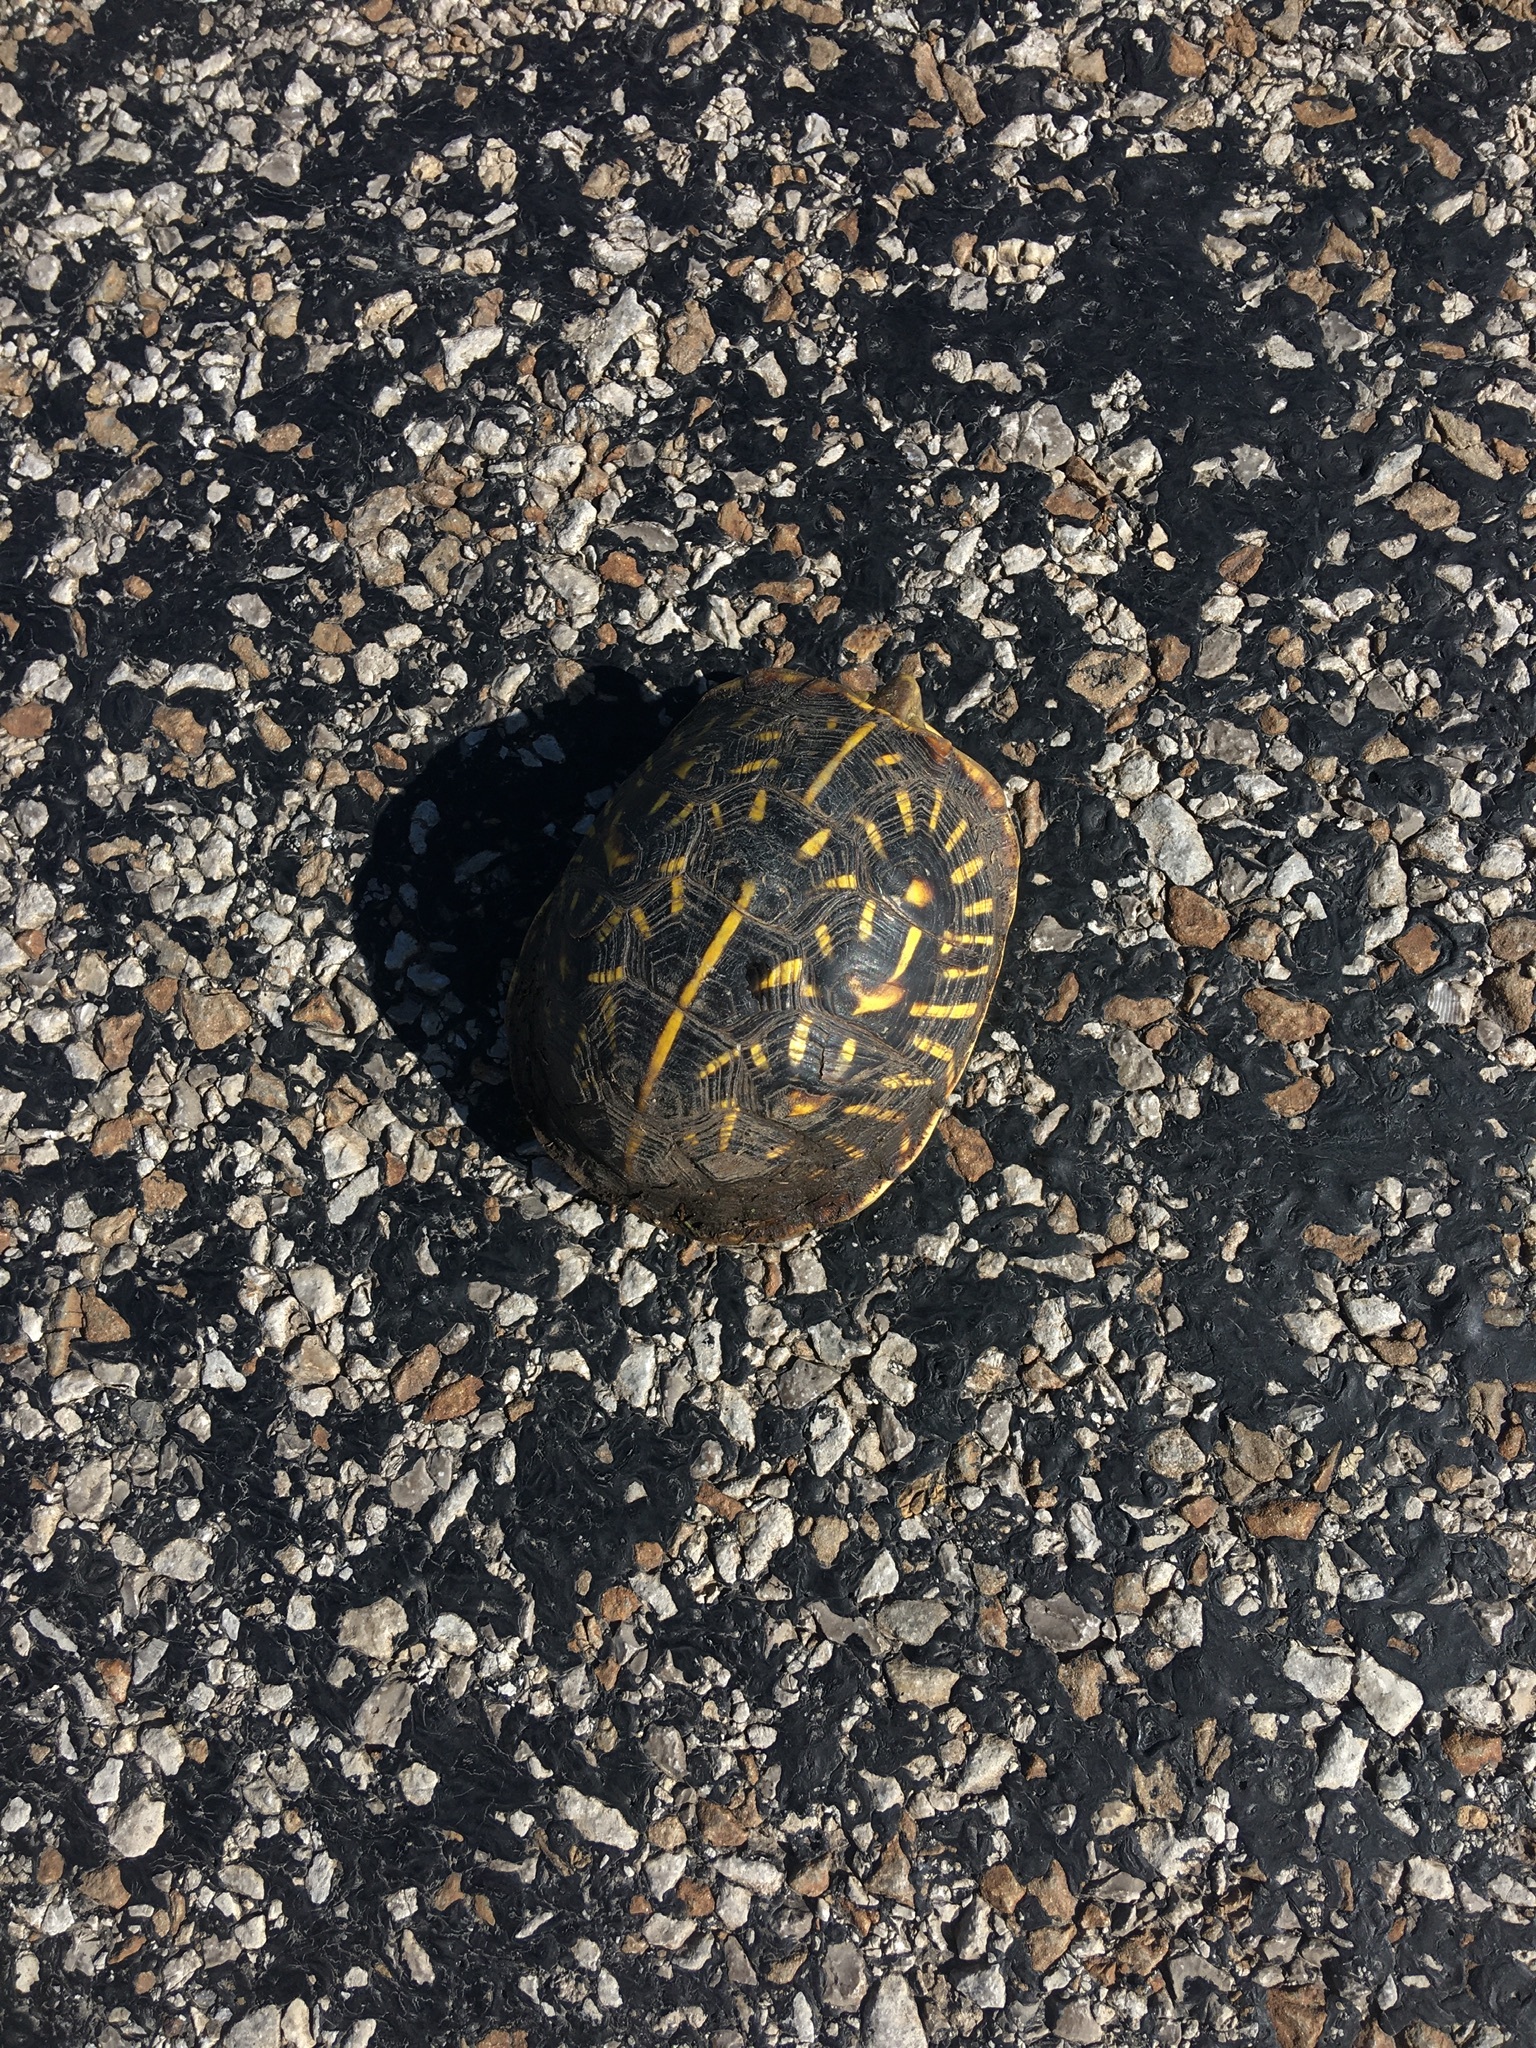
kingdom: Animalia
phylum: Chordata
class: Testudines
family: Emydidae
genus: Terrapene
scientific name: Terrapene ornata
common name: Western box turtle
